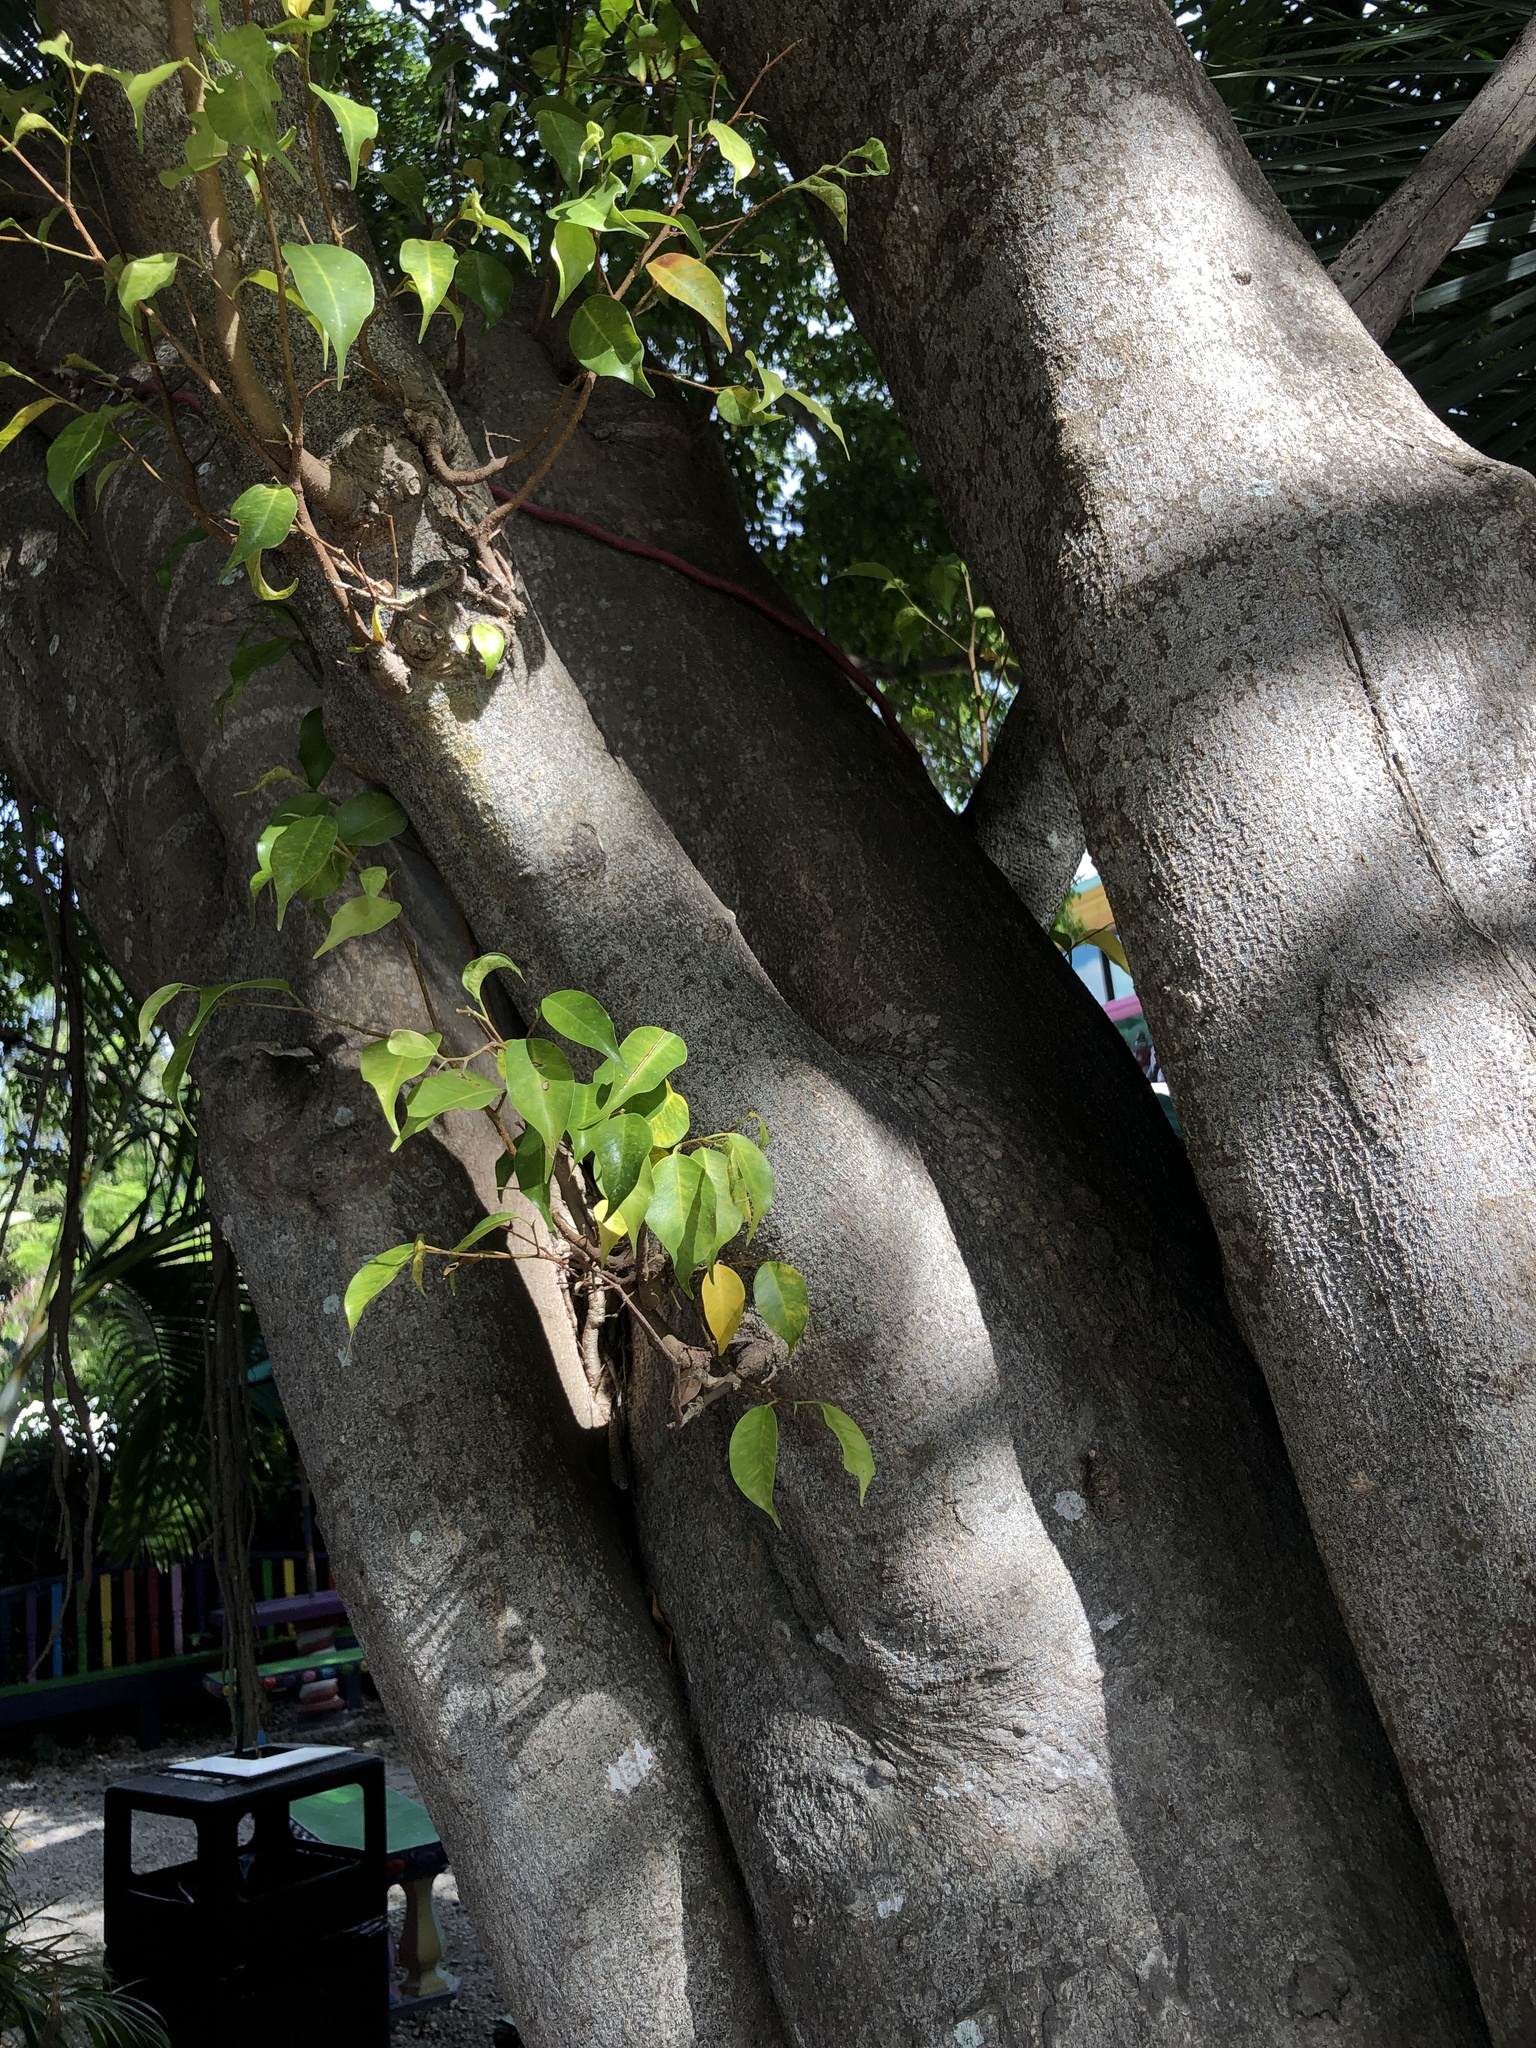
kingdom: Plantae
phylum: Tracheophyta
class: Magnoliopsida
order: Rosales
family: Moraceae
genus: Ficus
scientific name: Ficus benjamina
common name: Weeping fig
